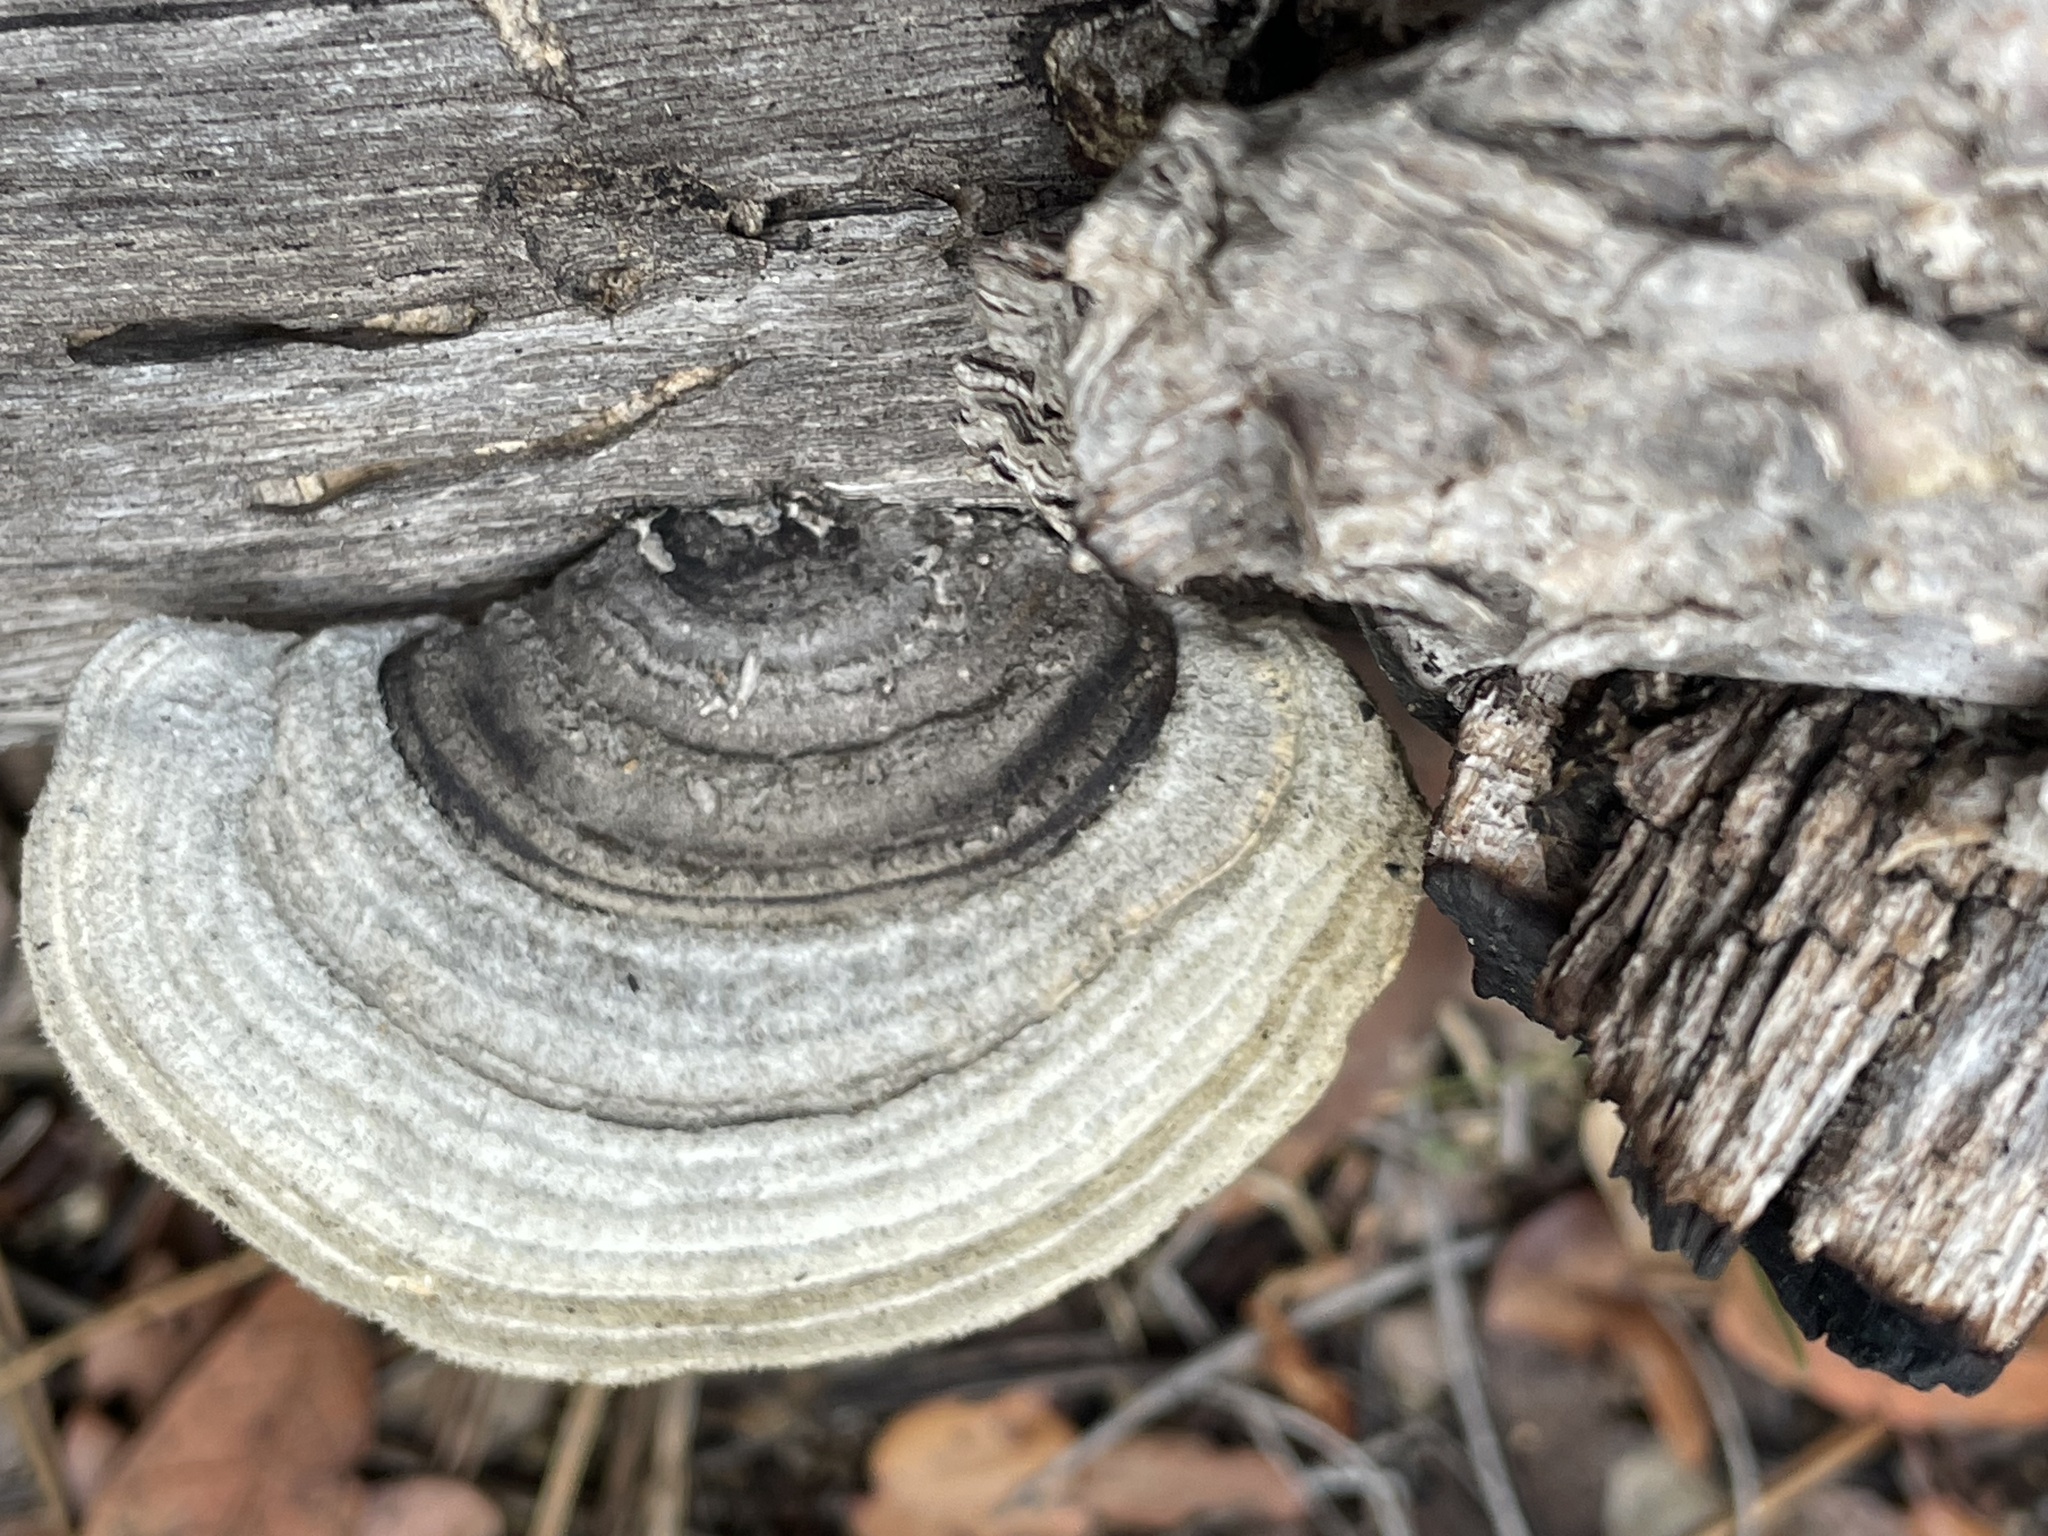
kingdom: Fungi
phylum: Basidiomycota
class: Agaricomycetes
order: Polyporales
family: Polyporaceae
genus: Trametes
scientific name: Trametes hirsuta
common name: Hairy bracket
